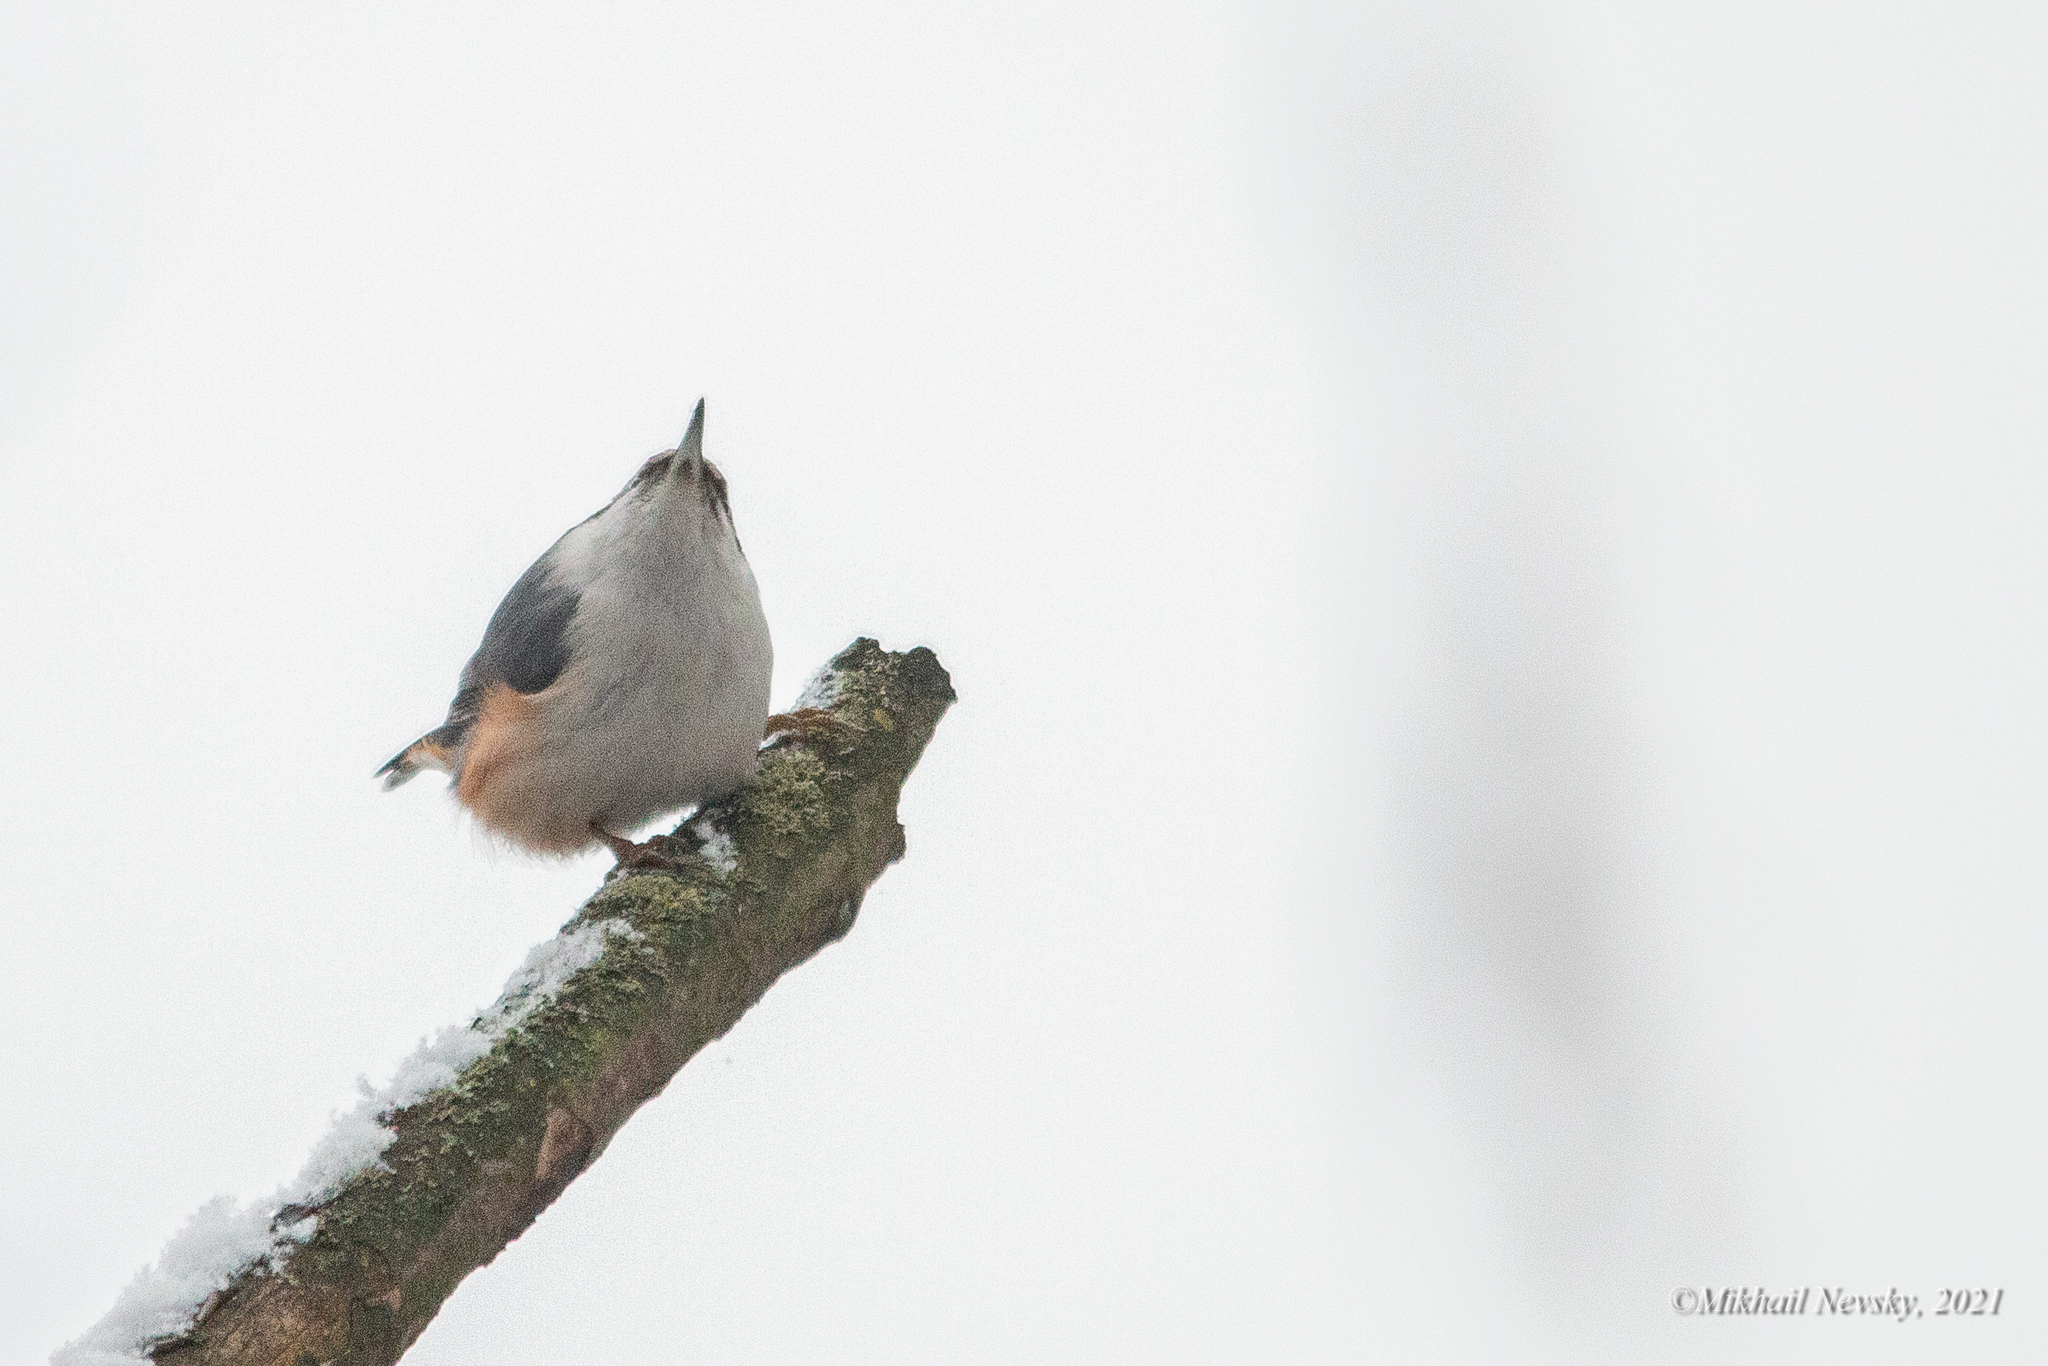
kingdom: Animalia
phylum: Chordata
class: Aves
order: Passeriformes
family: Sittidae
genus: Sitta
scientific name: Sitta europaea
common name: Eurasian nuthatch
